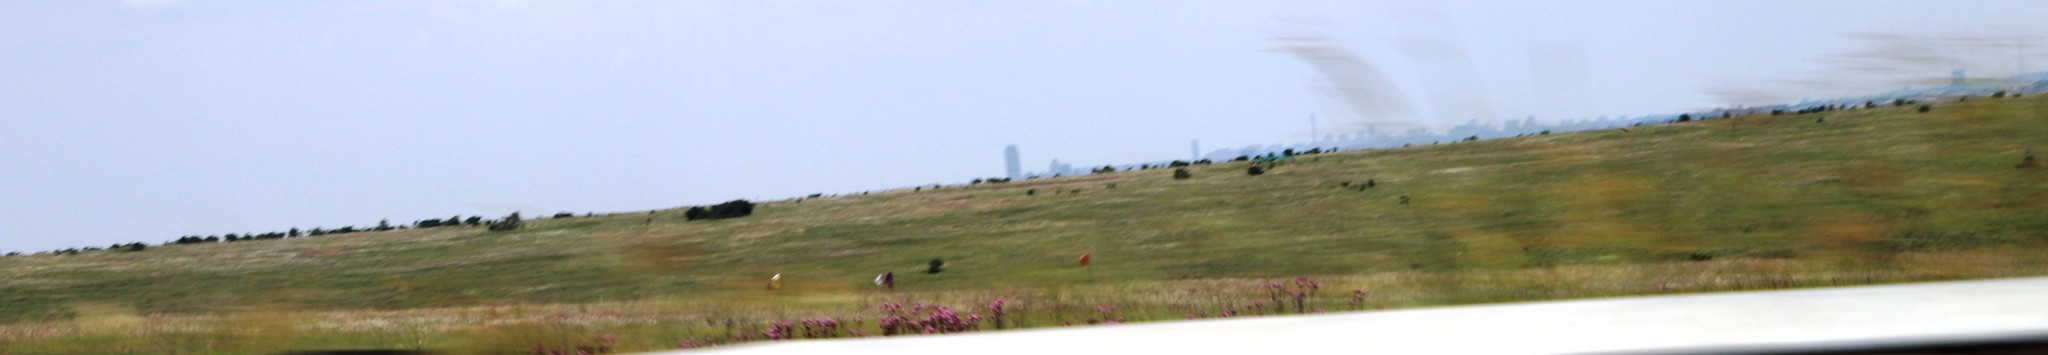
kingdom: Plantae
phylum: Tracheophyta
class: Magnoliopsida
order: Asterales
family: Asteraceae
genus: Campuloclinium
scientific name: Campuloclinium macrocephalum
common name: Pompomweed
